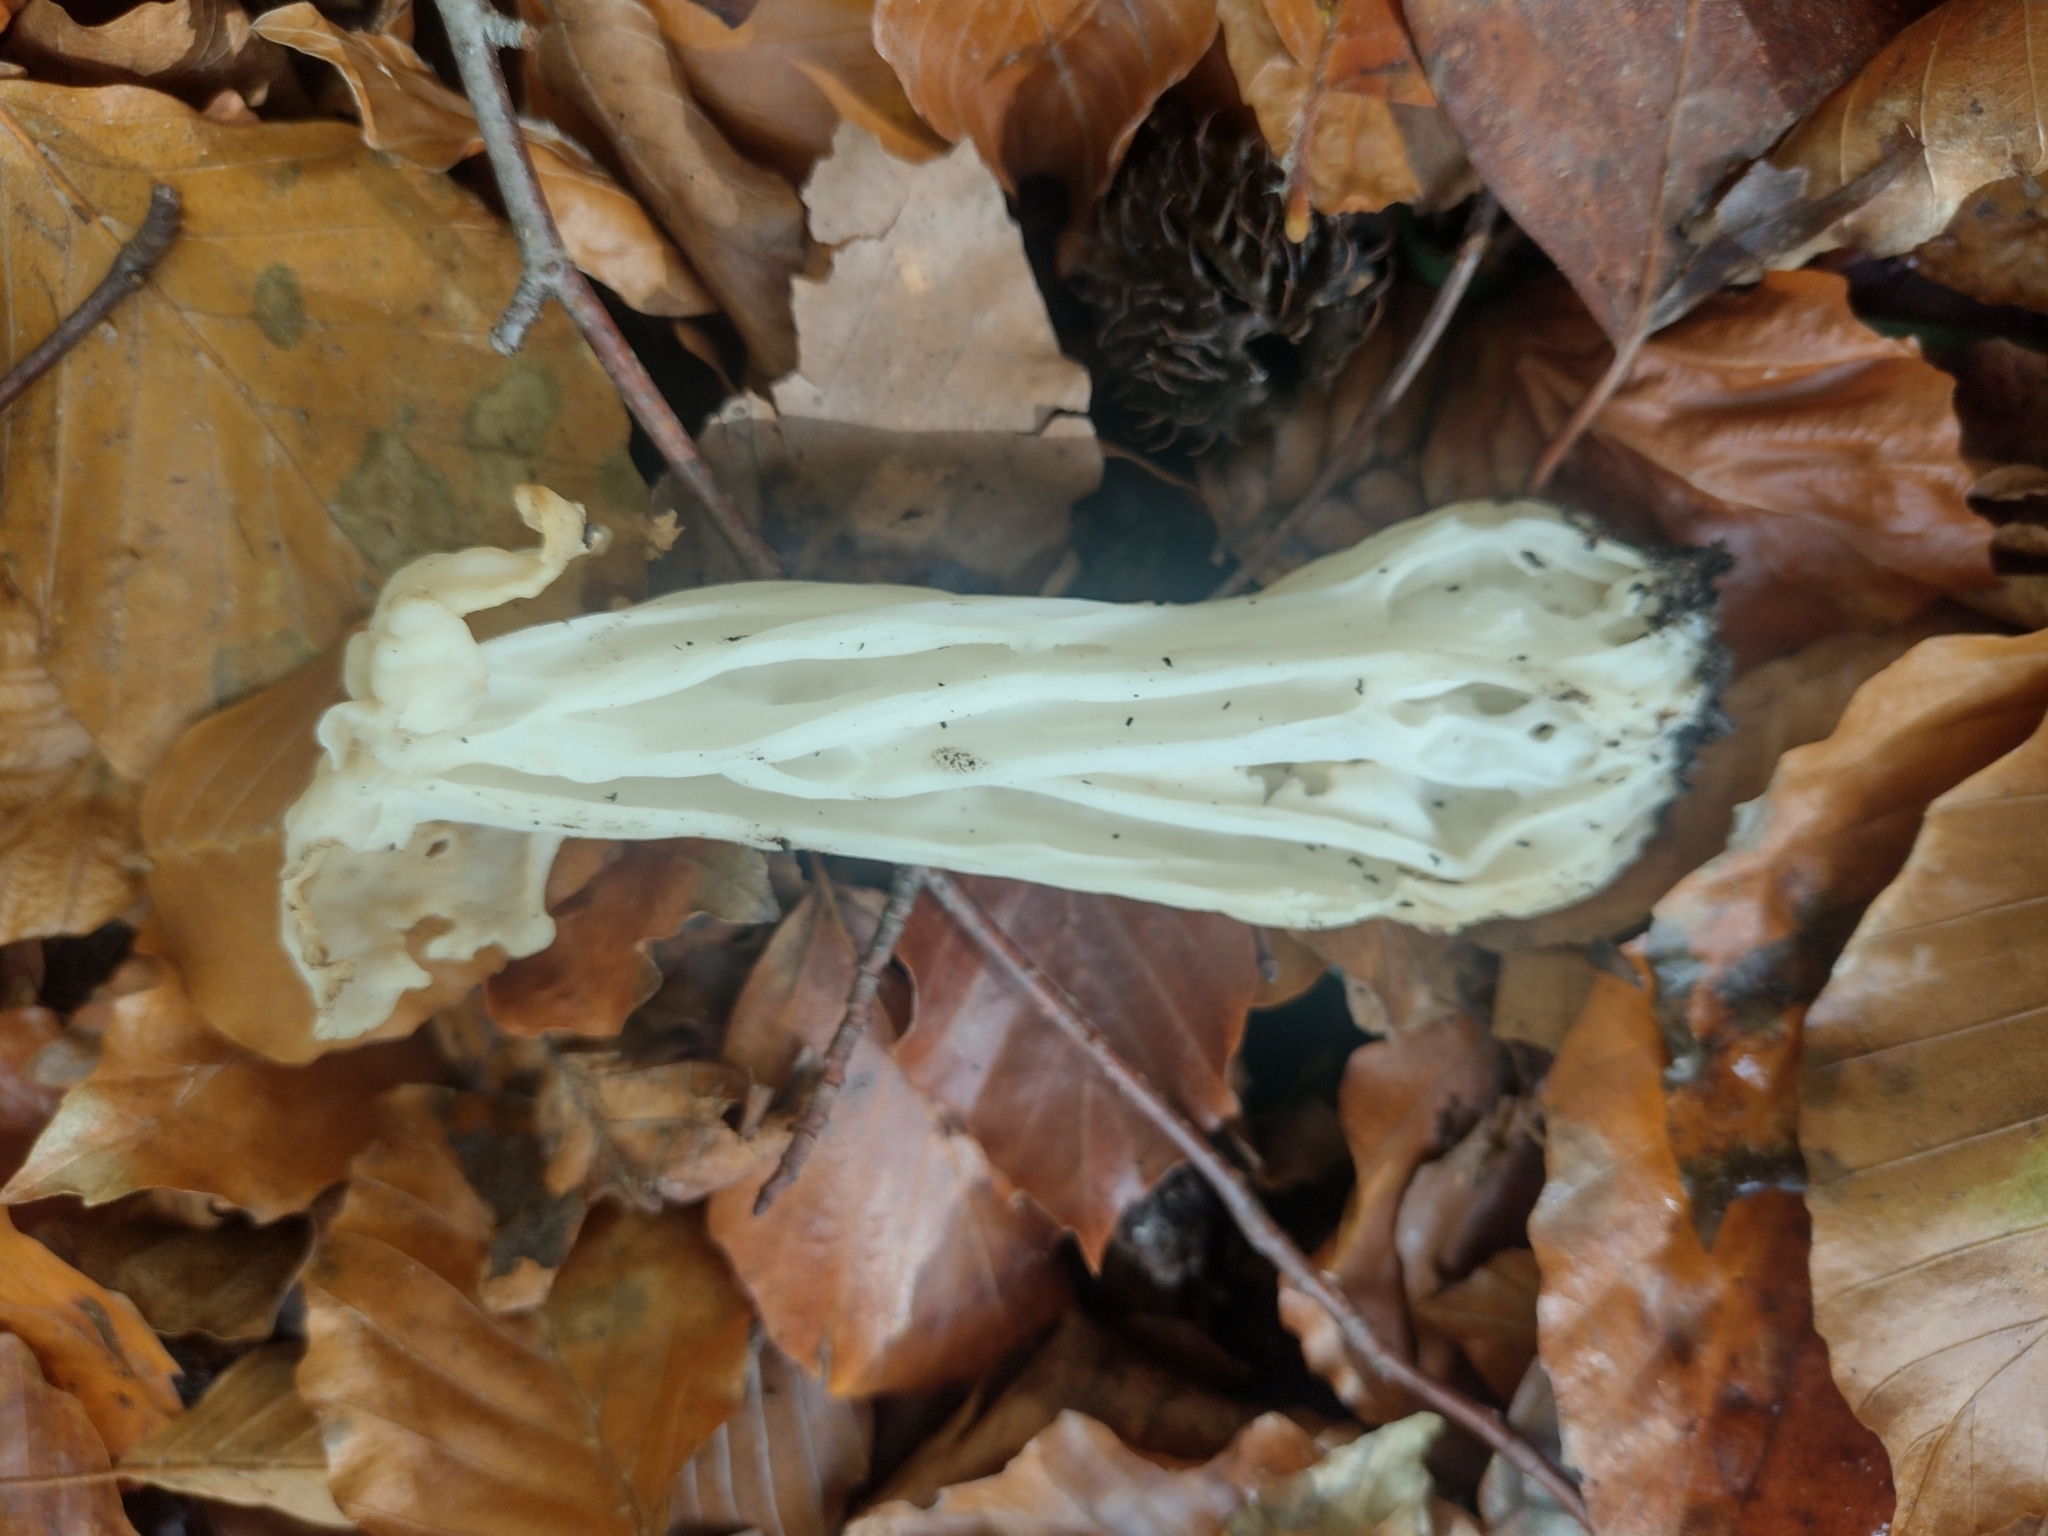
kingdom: Fungi
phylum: Ascomycota
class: Pezizomycetes
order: Pezizales
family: Helvellaceae
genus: Helvella
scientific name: Helvella crispa
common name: White saddle
